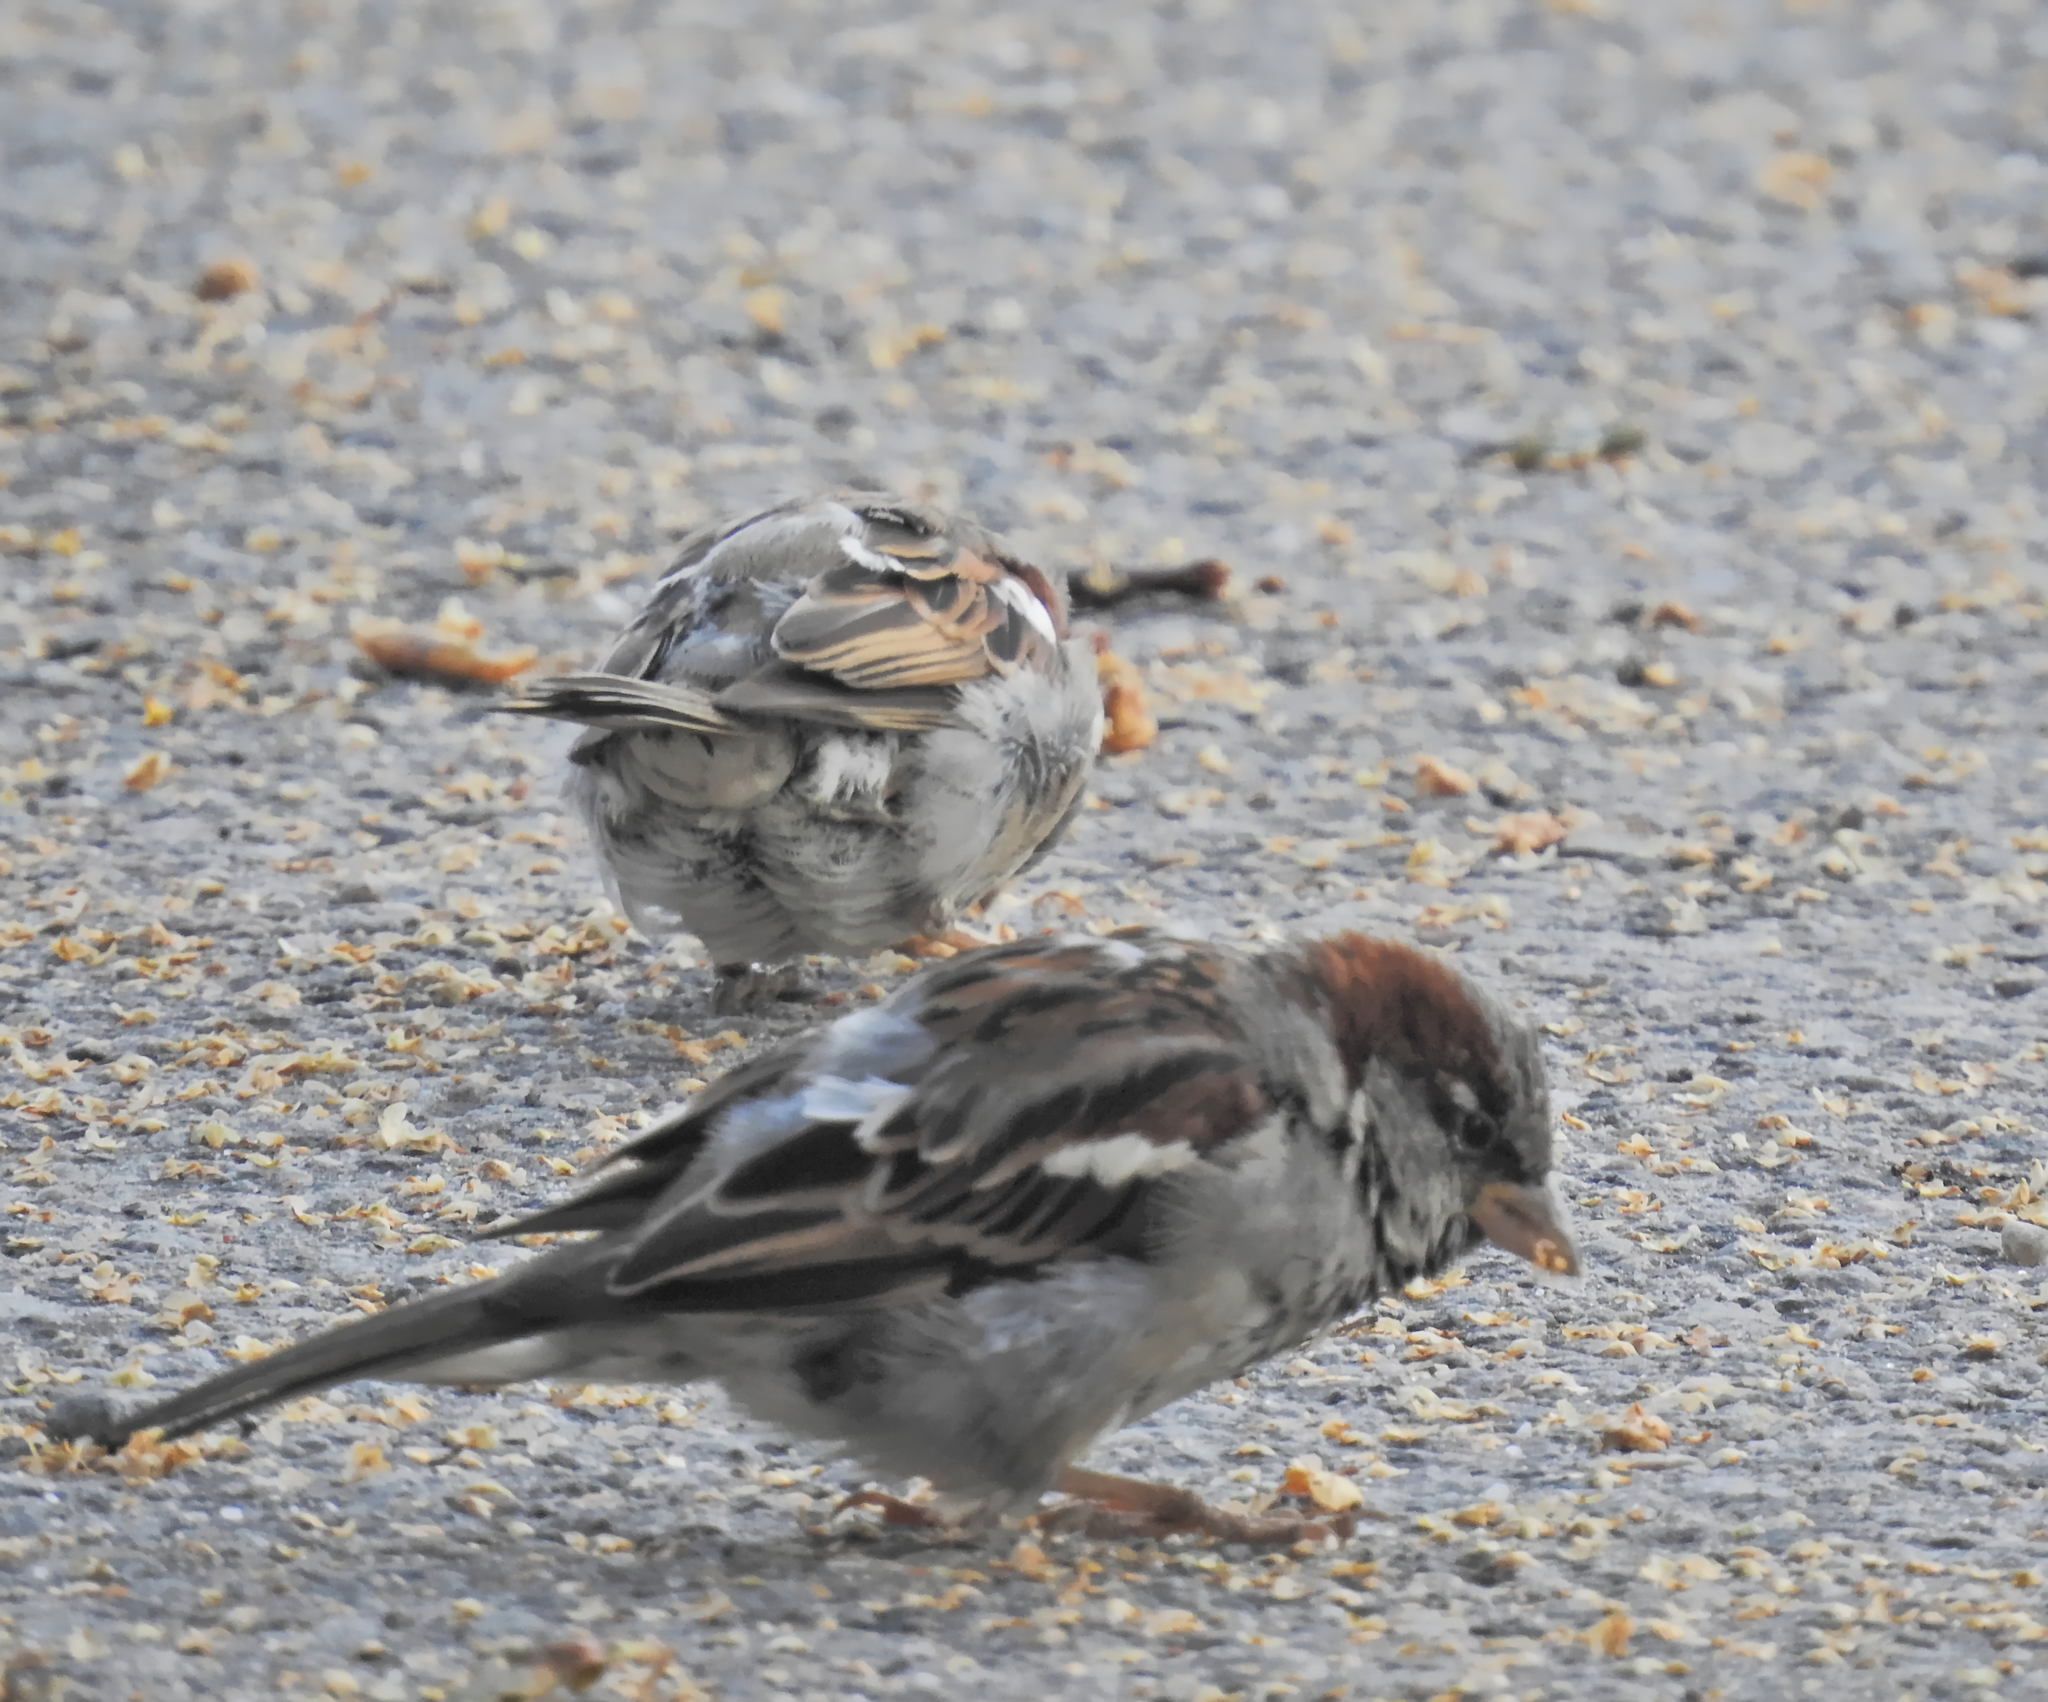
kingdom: Animalia
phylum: Chordata
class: Aves
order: Passeriformes
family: Passeridae
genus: Passer
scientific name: Passer domesticus
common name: House sparrow
